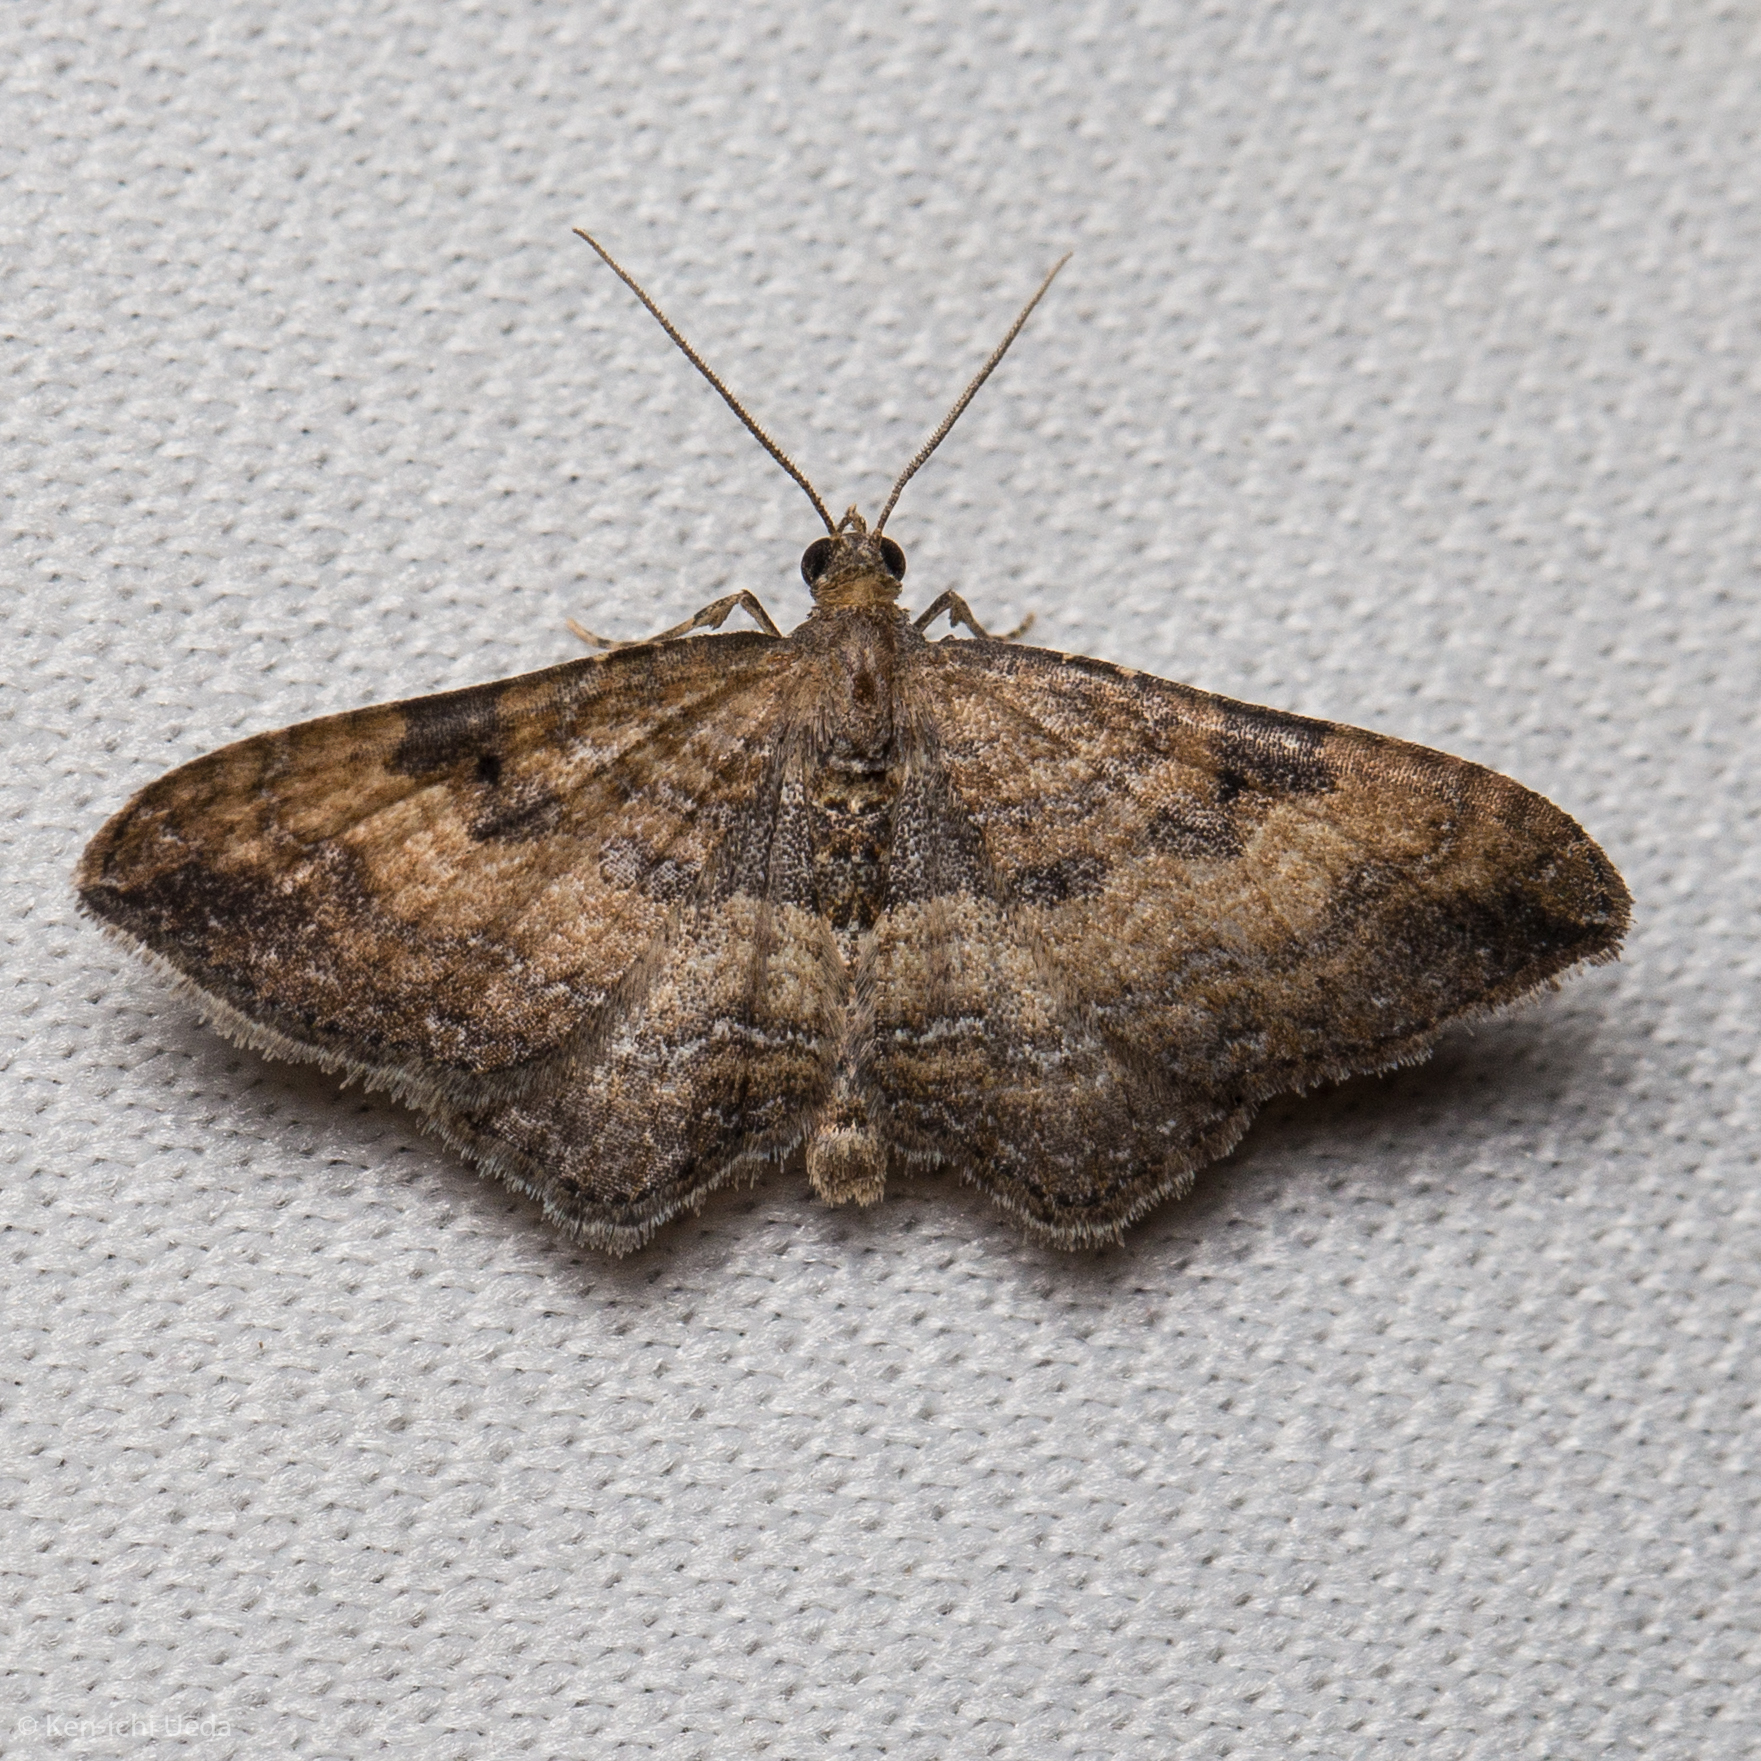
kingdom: Animalia
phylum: Arthropoda
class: Insecta
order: Lepidoptera
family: Geometridae
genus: Orthonama
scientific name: Orthonama obstipata
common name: The gem
